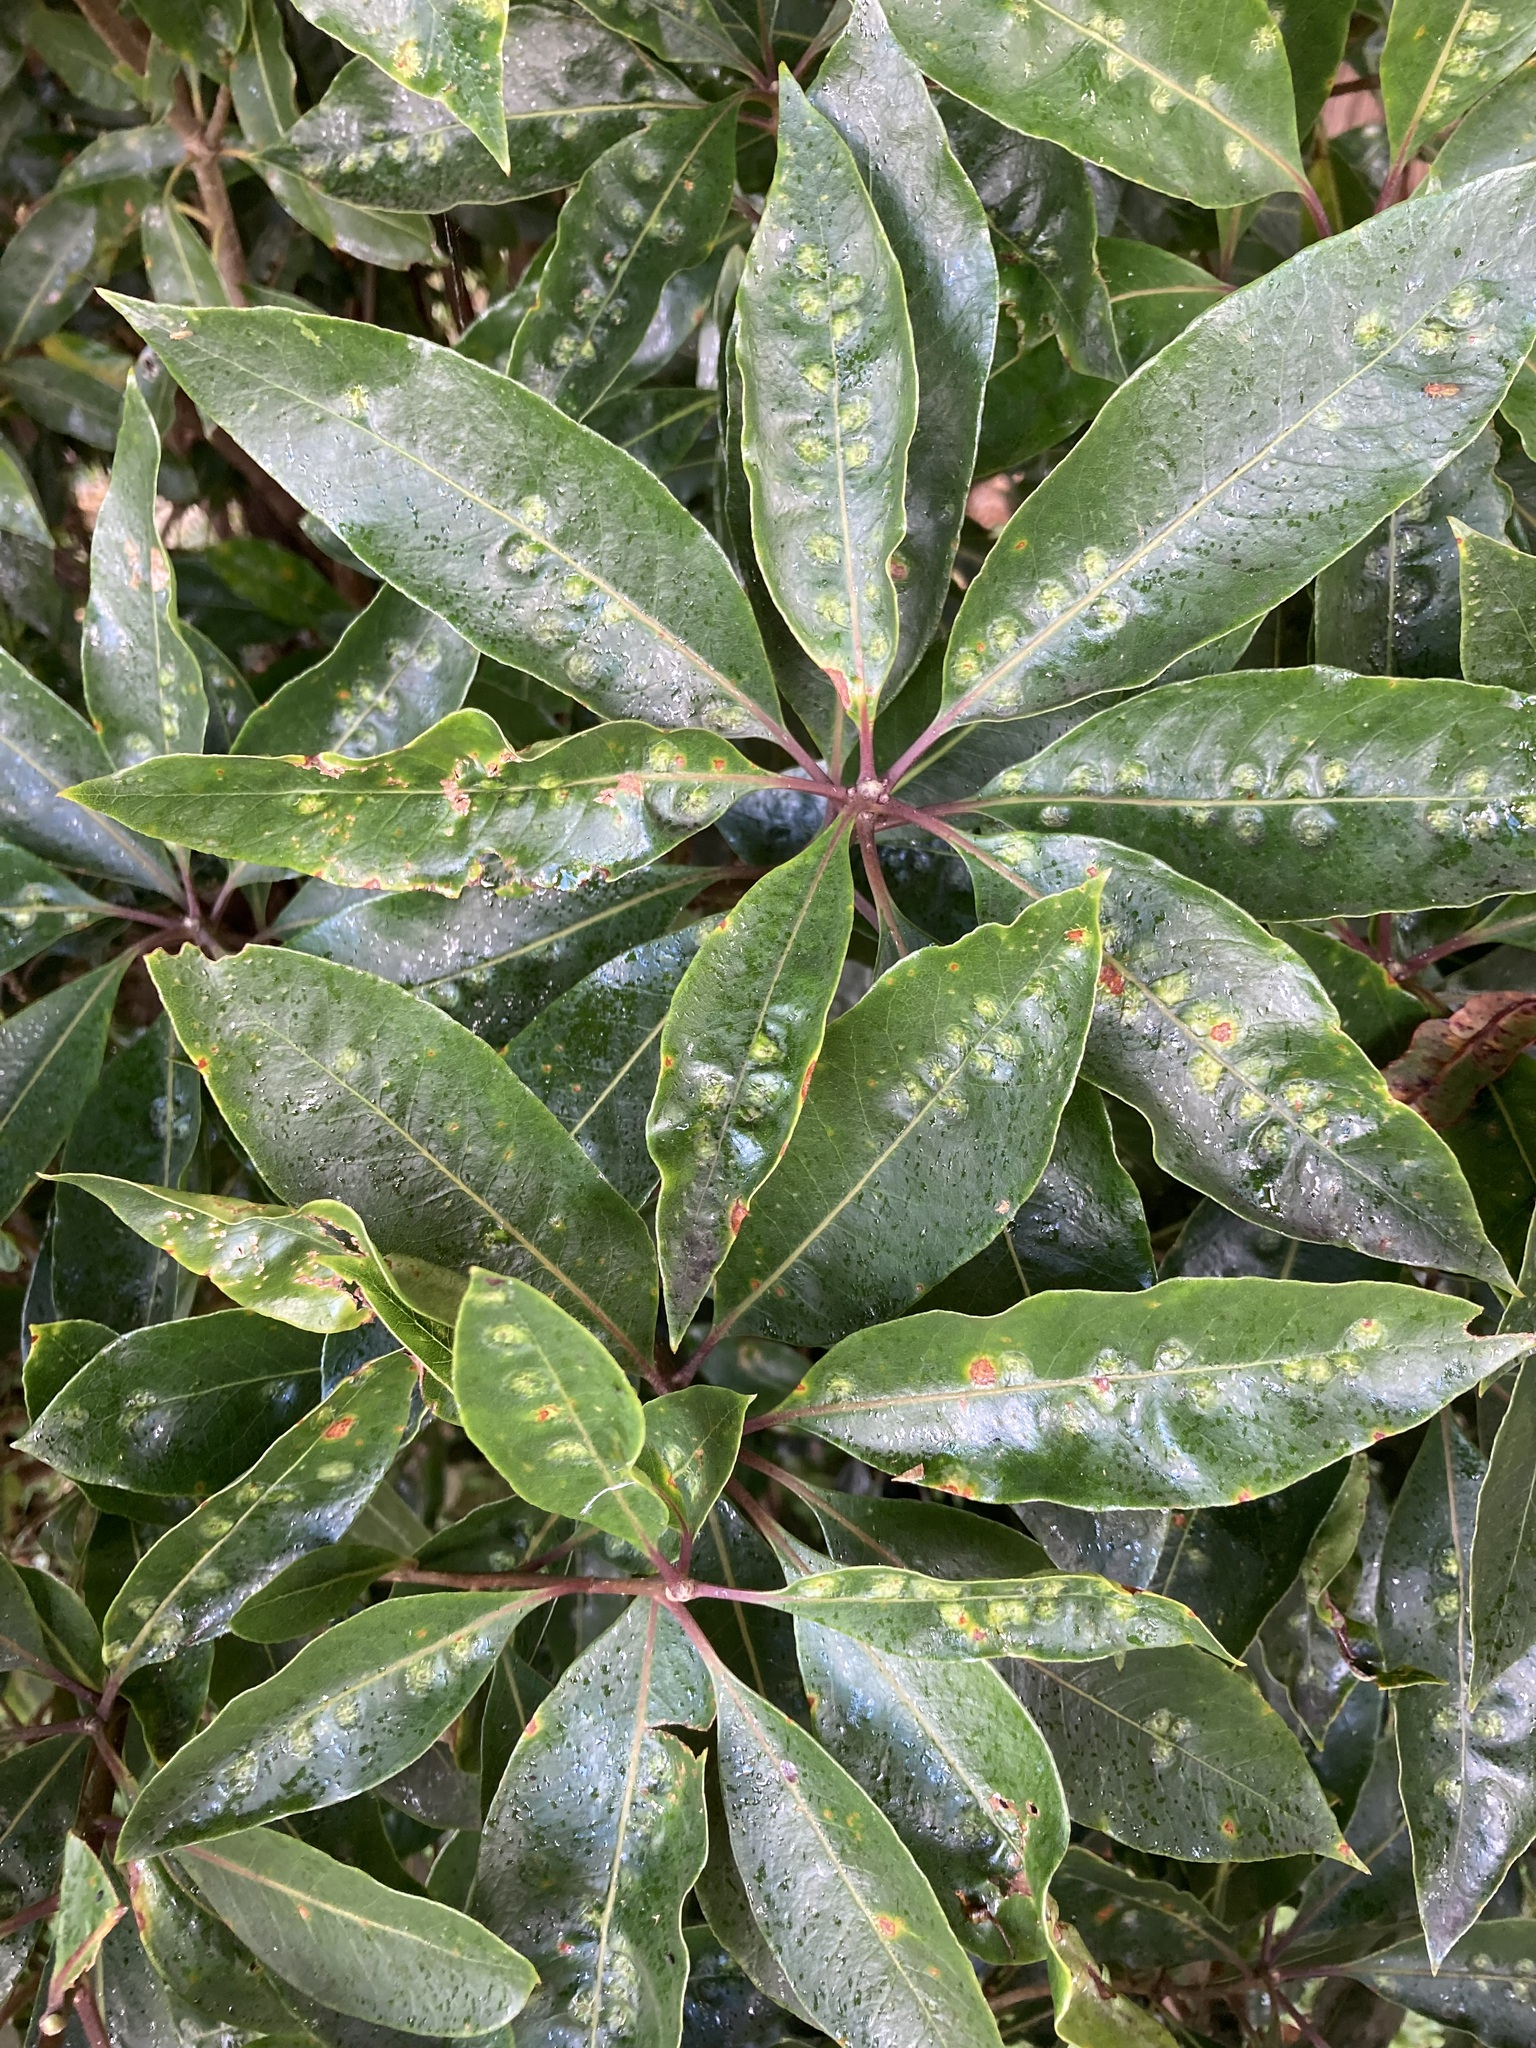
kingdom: Animalia
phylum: Arthropoda
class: Insecta
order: Diptera
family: Agromyzidae
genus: Phytoliriomyza
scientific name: Phytoliriomyza pittosporophylli
